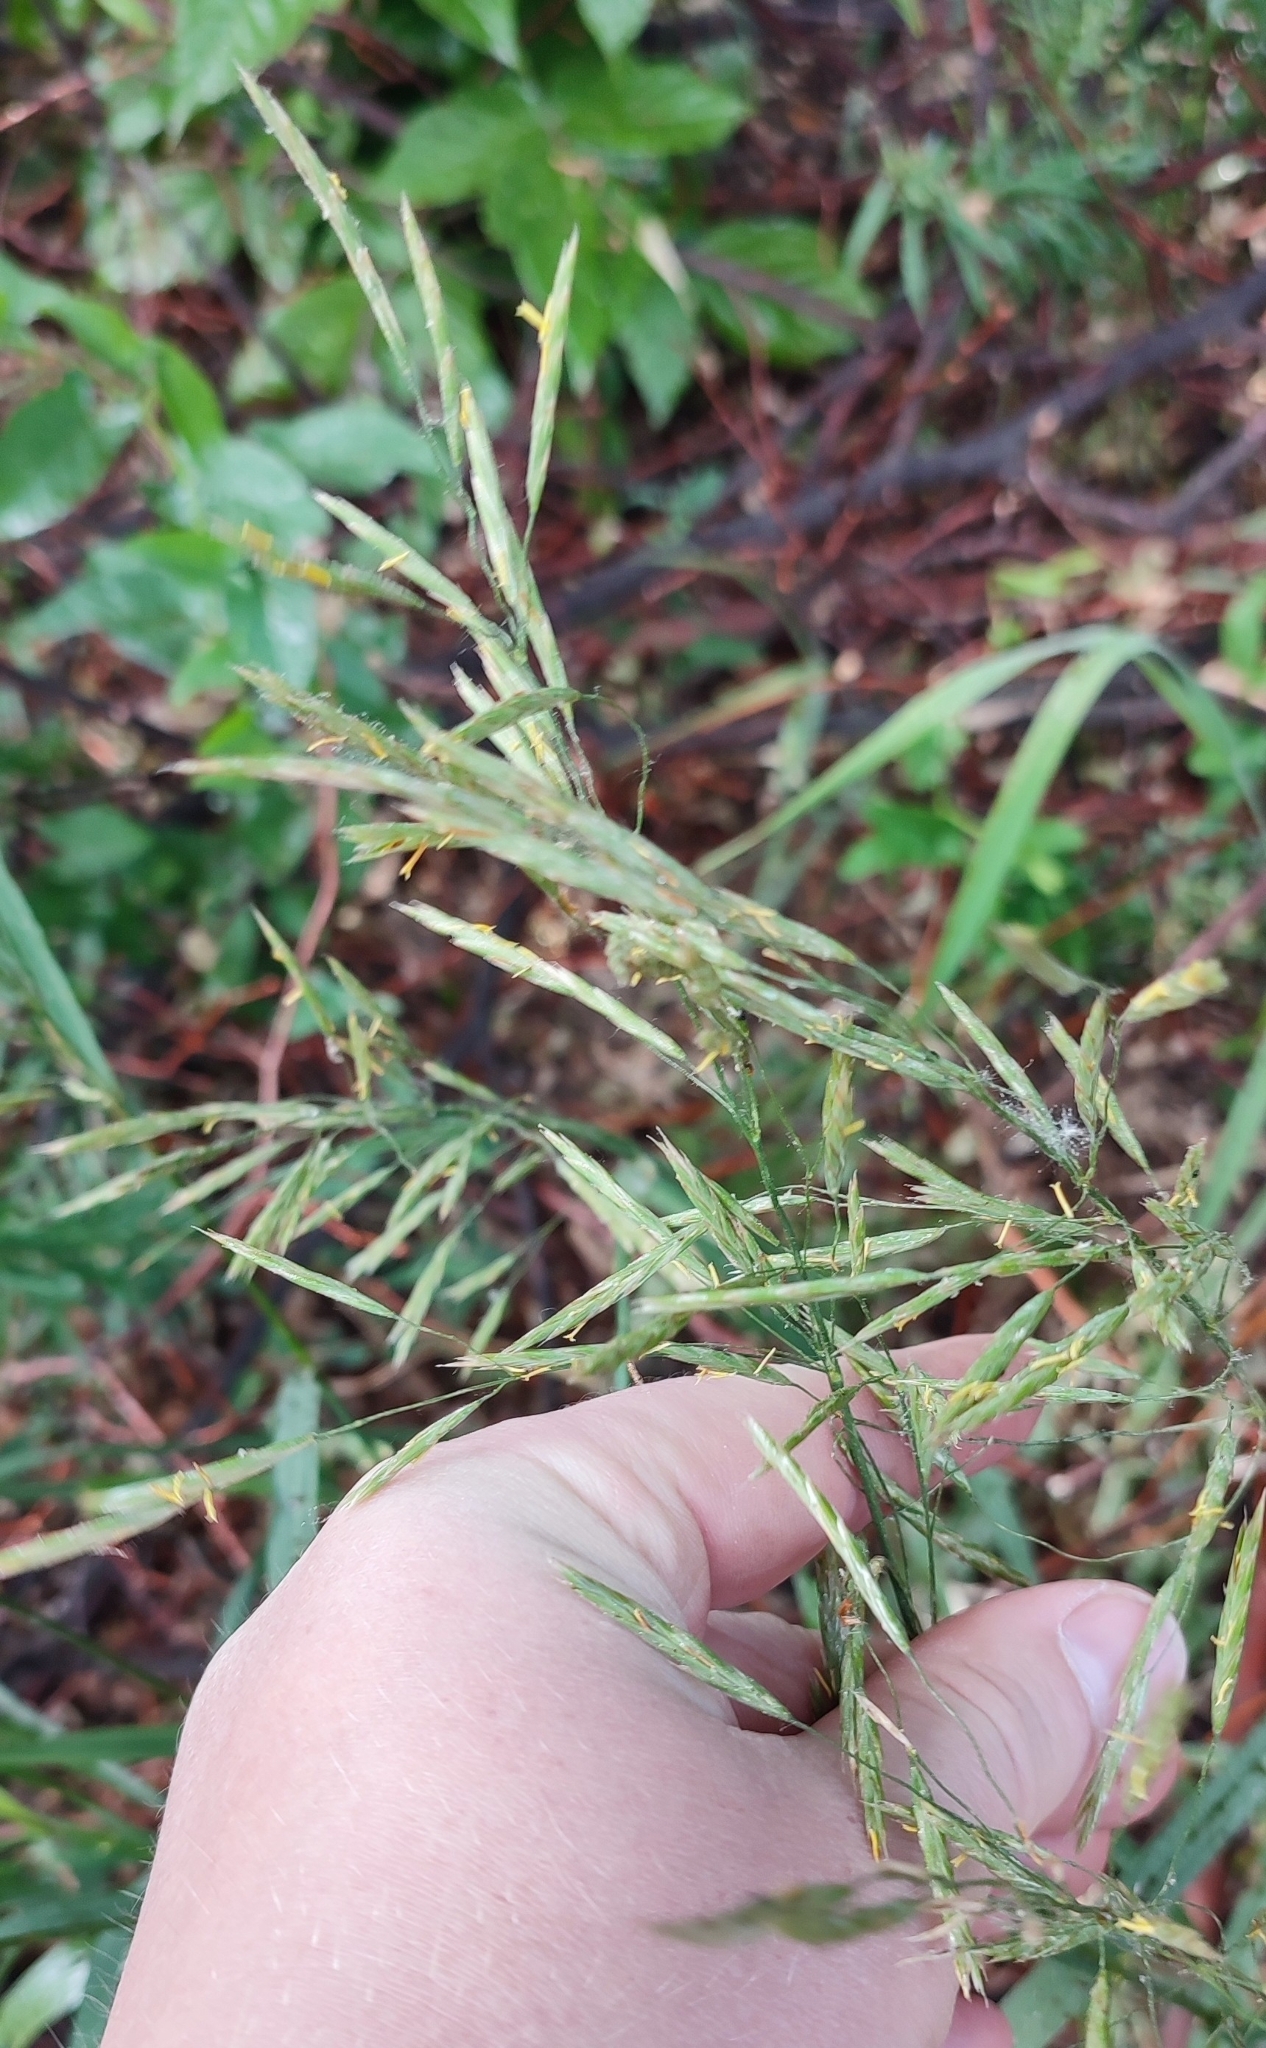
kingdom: Plantae
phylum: Tracheophyta
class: Liliopsida
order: Poales
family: Poaceae
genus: Bromus
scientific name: Bromus inermis
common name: Smooth brome
